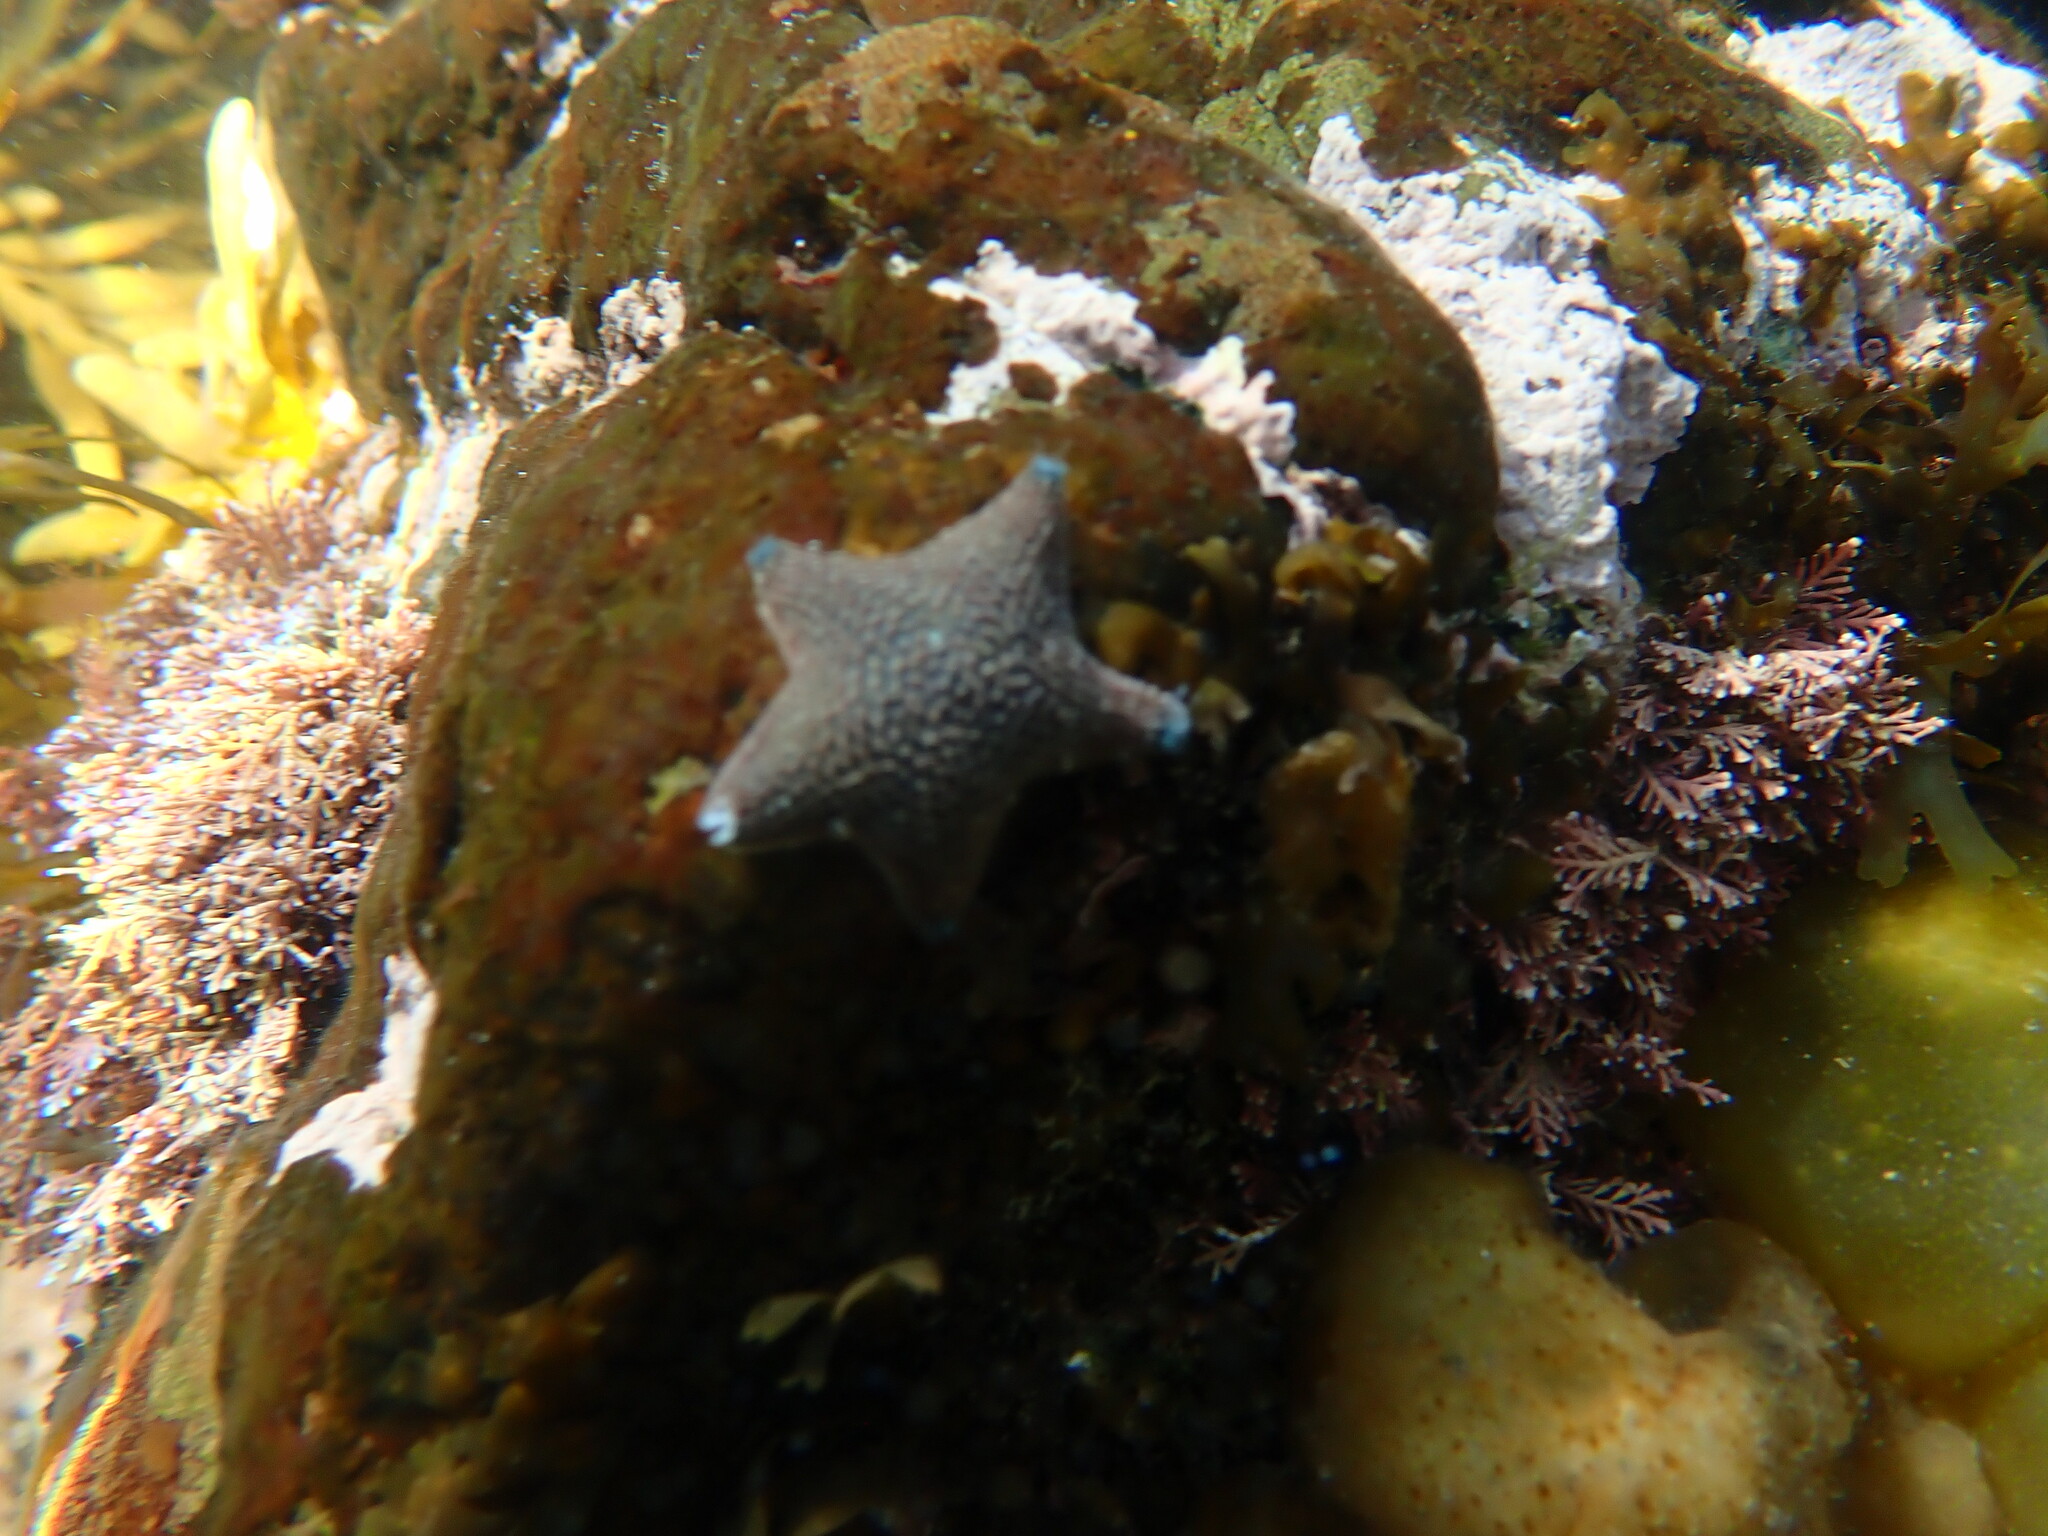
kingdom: Animalia
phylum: Echinodermata
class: Asteroidea
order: Valvatida
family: Asterinidae
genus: Patiriella
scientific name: Patiriella regularis
